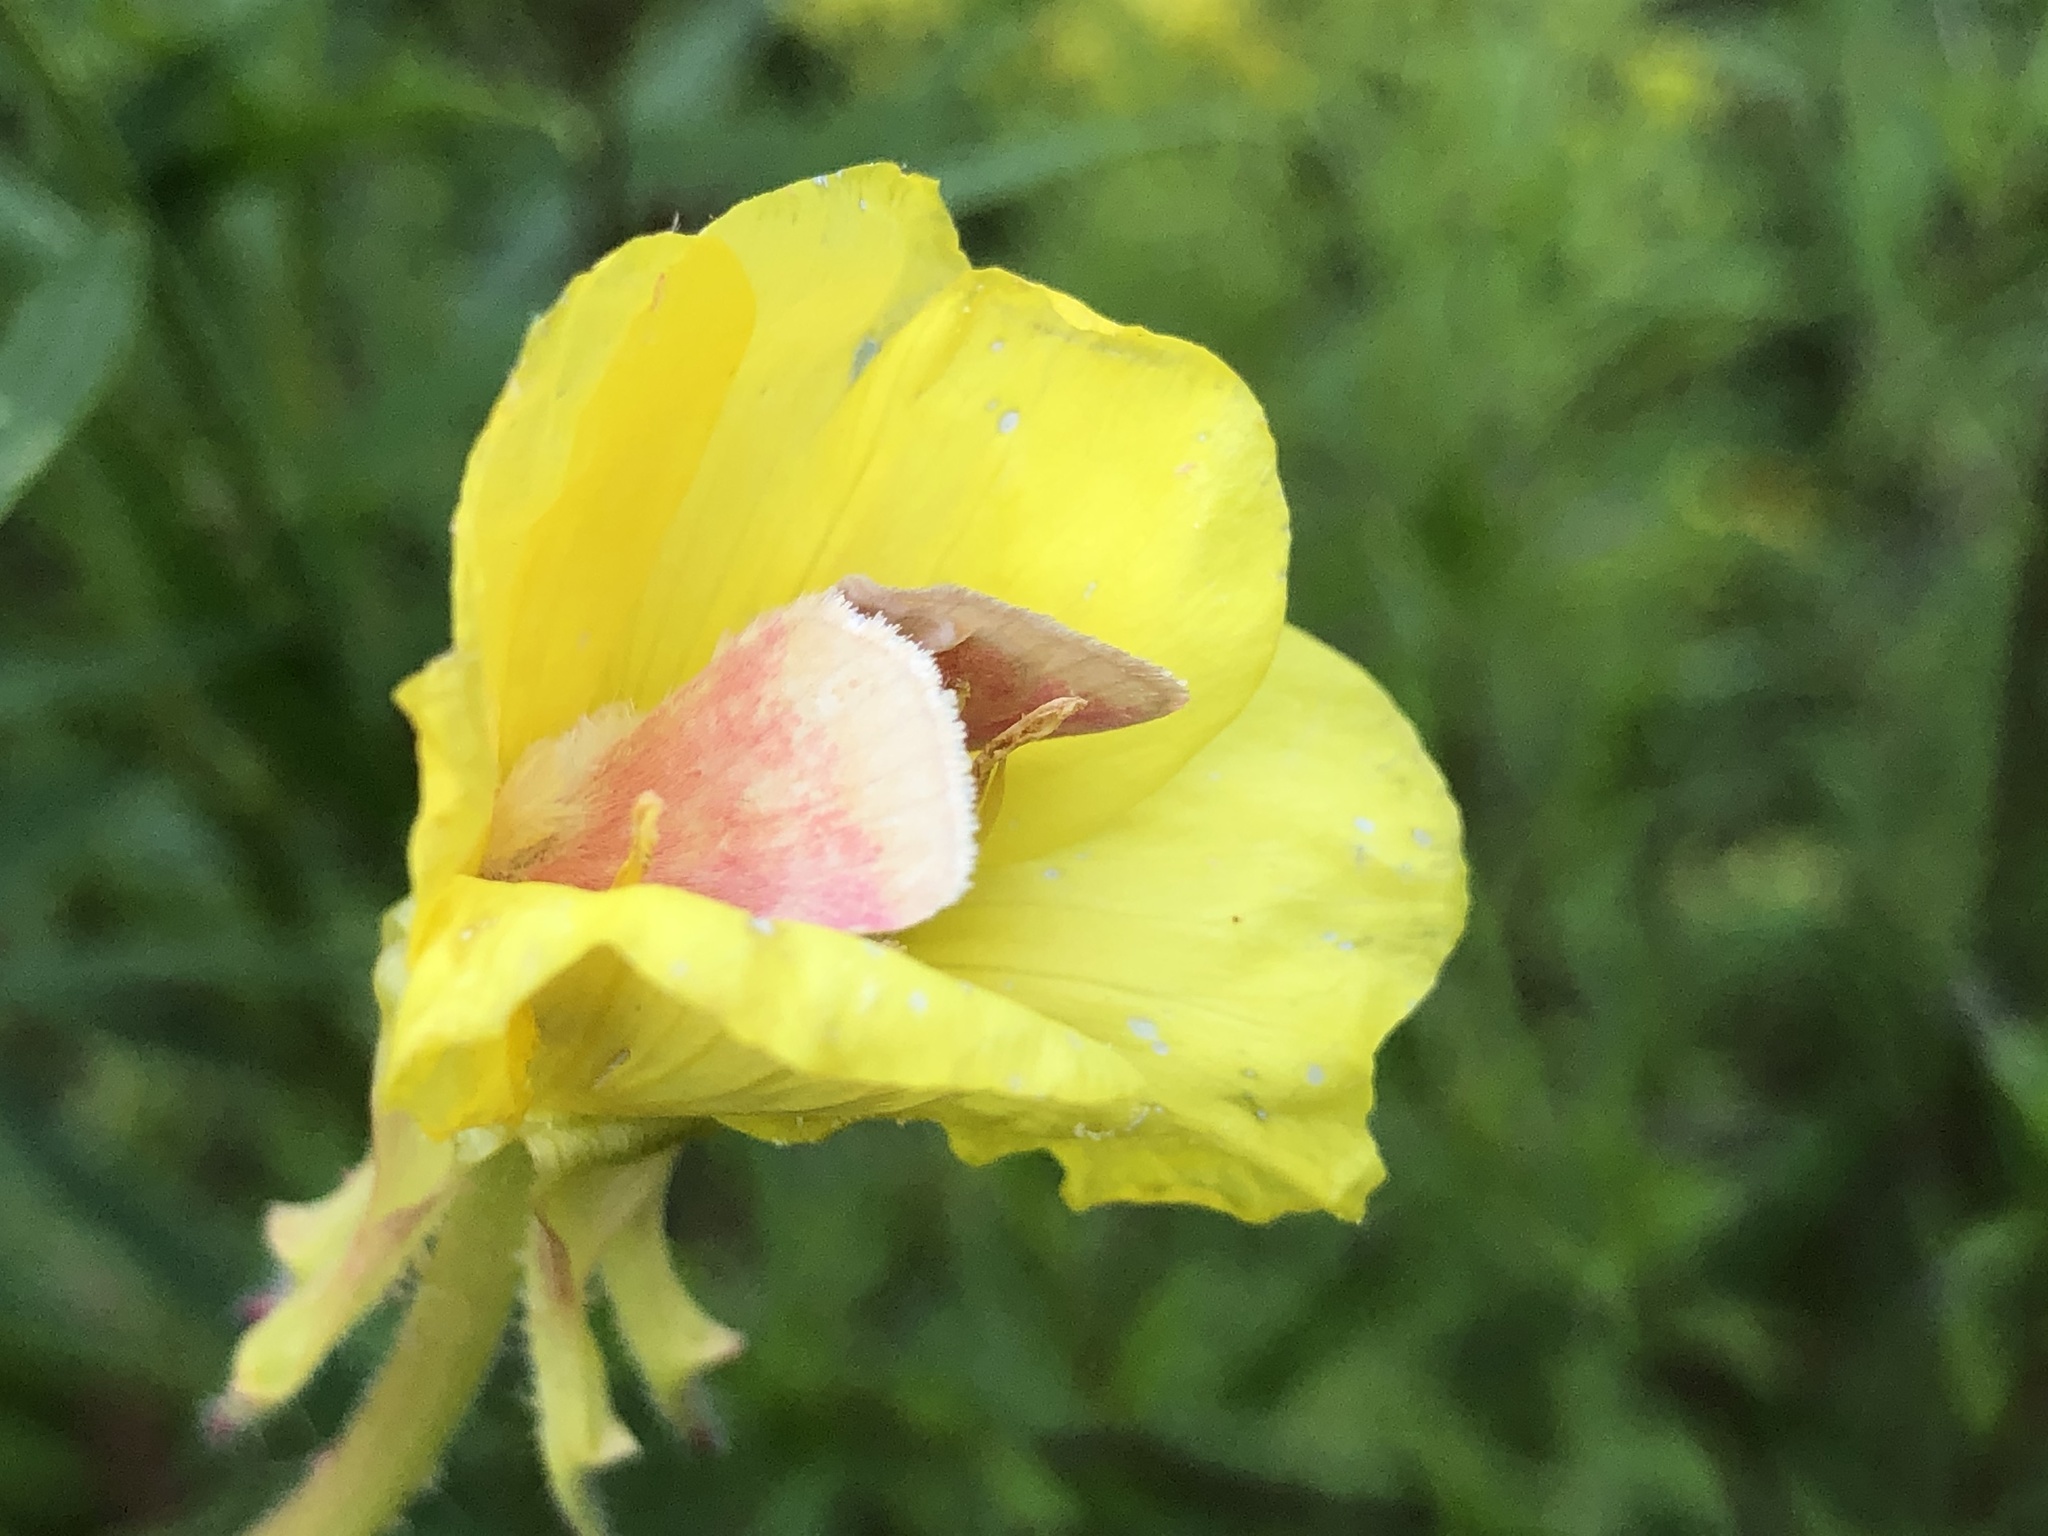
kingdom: Animalia
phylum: Arthropoda
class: Insecta
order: Lepidoptera
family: Noctuidae
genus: Schinia
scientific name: Schinia florida
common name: Primrose moth
